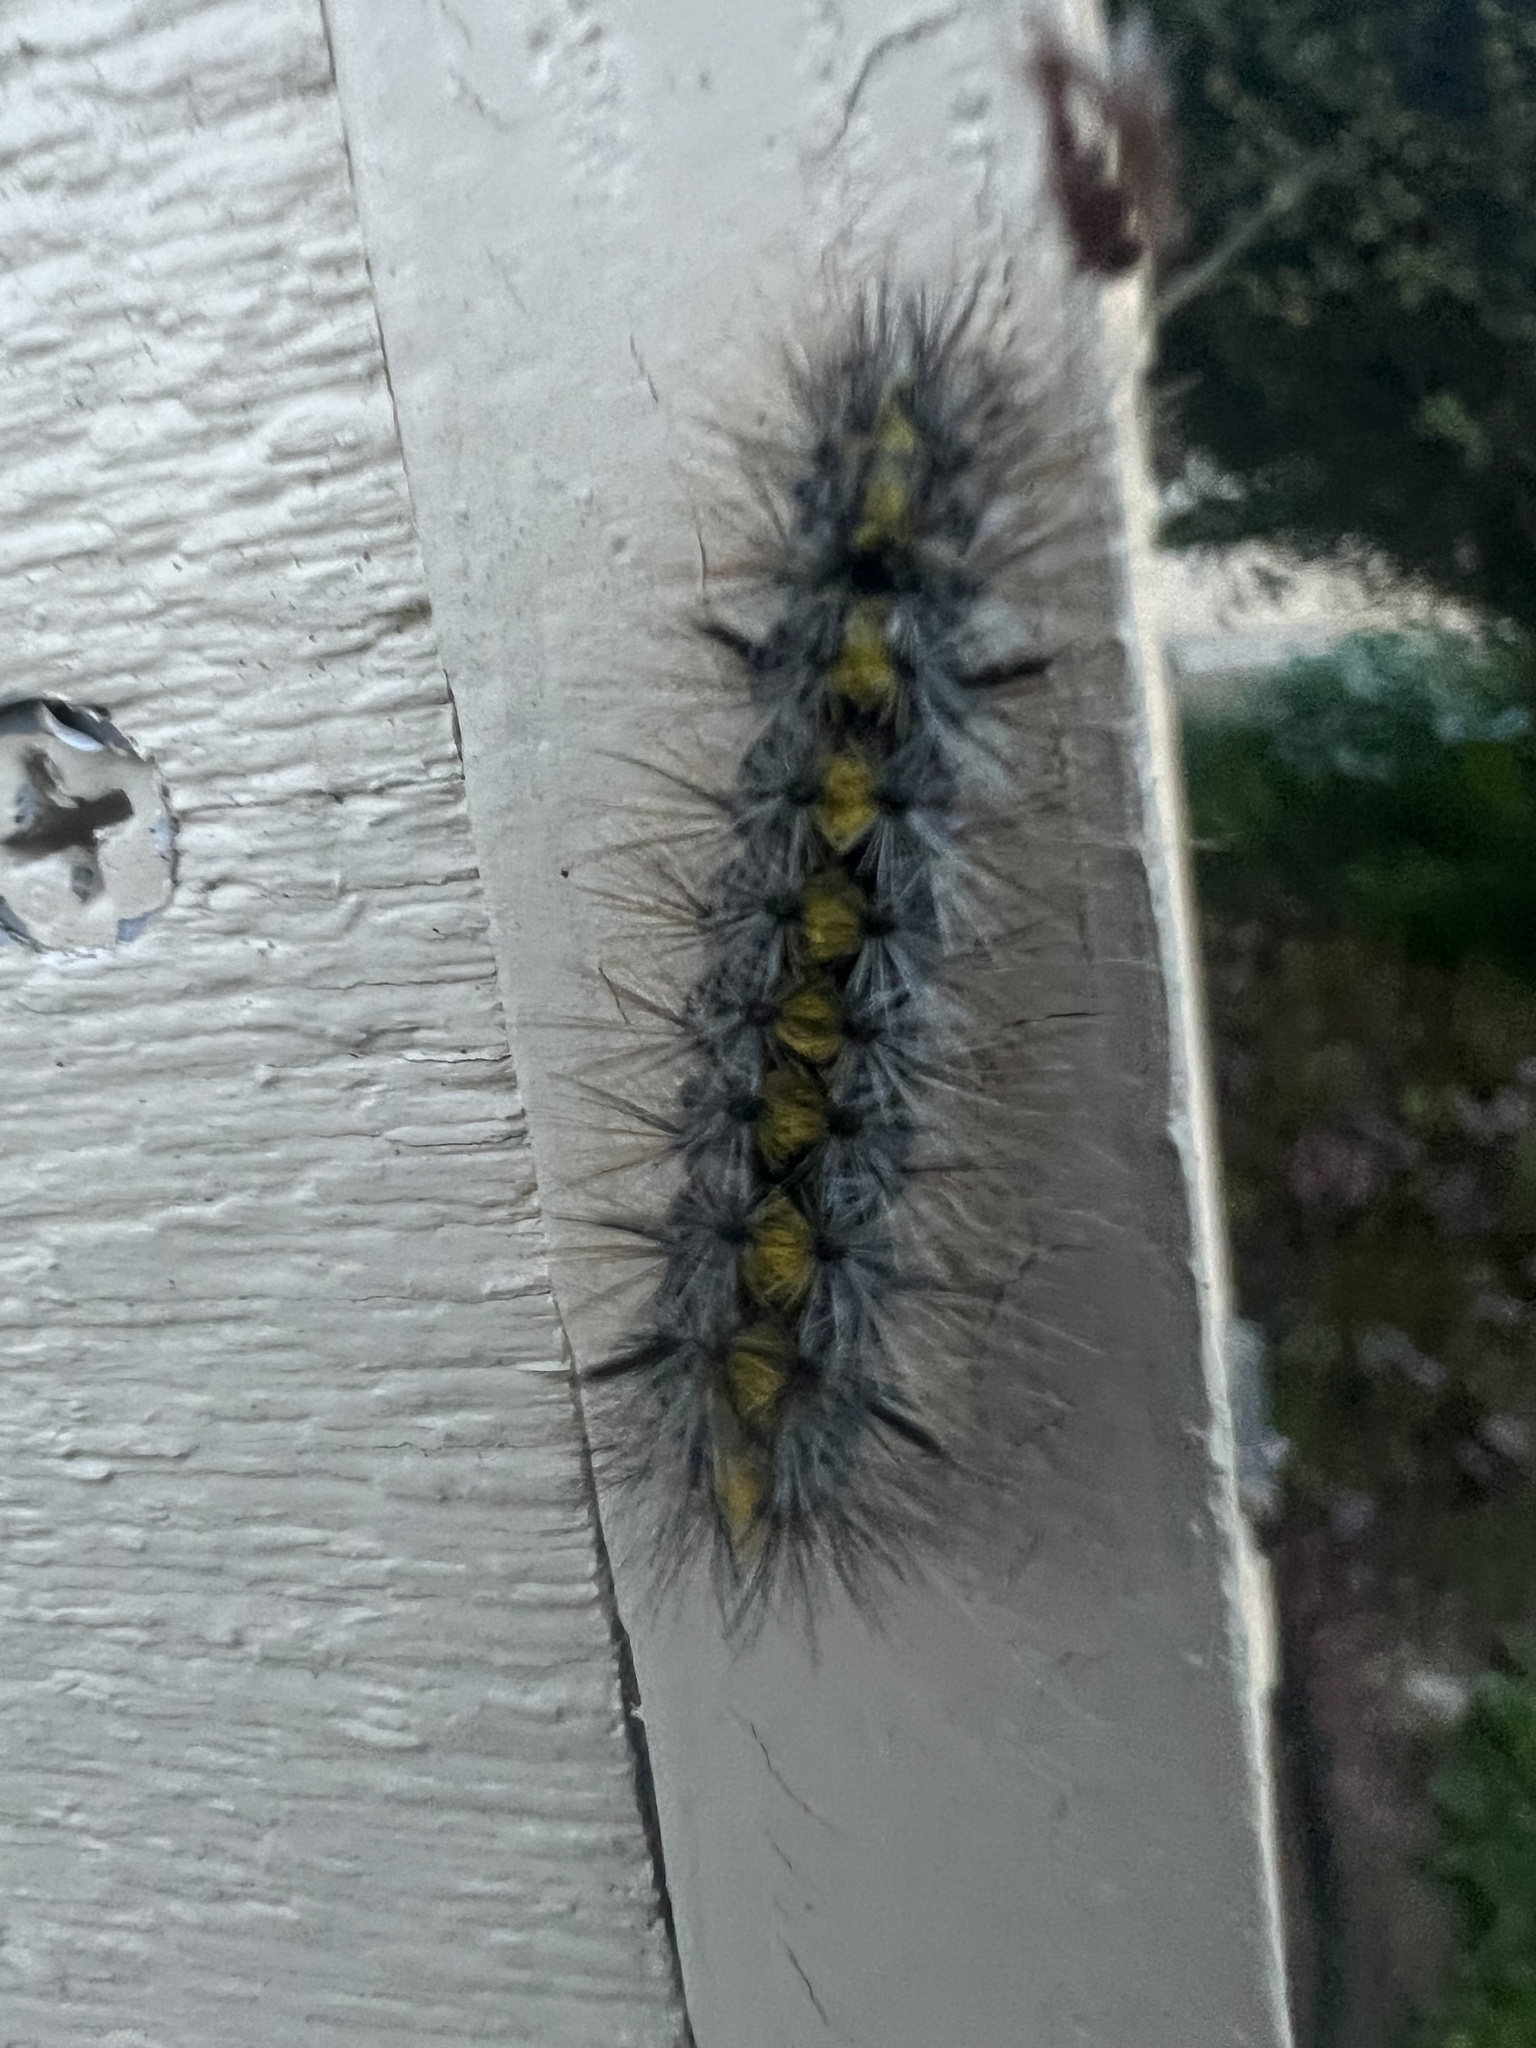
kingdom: Animalia
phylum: Arthropoda
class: Insecta
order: Lepidoptera
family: Erebidae
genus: Lophocampa
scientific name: Lophocampa sobrina
